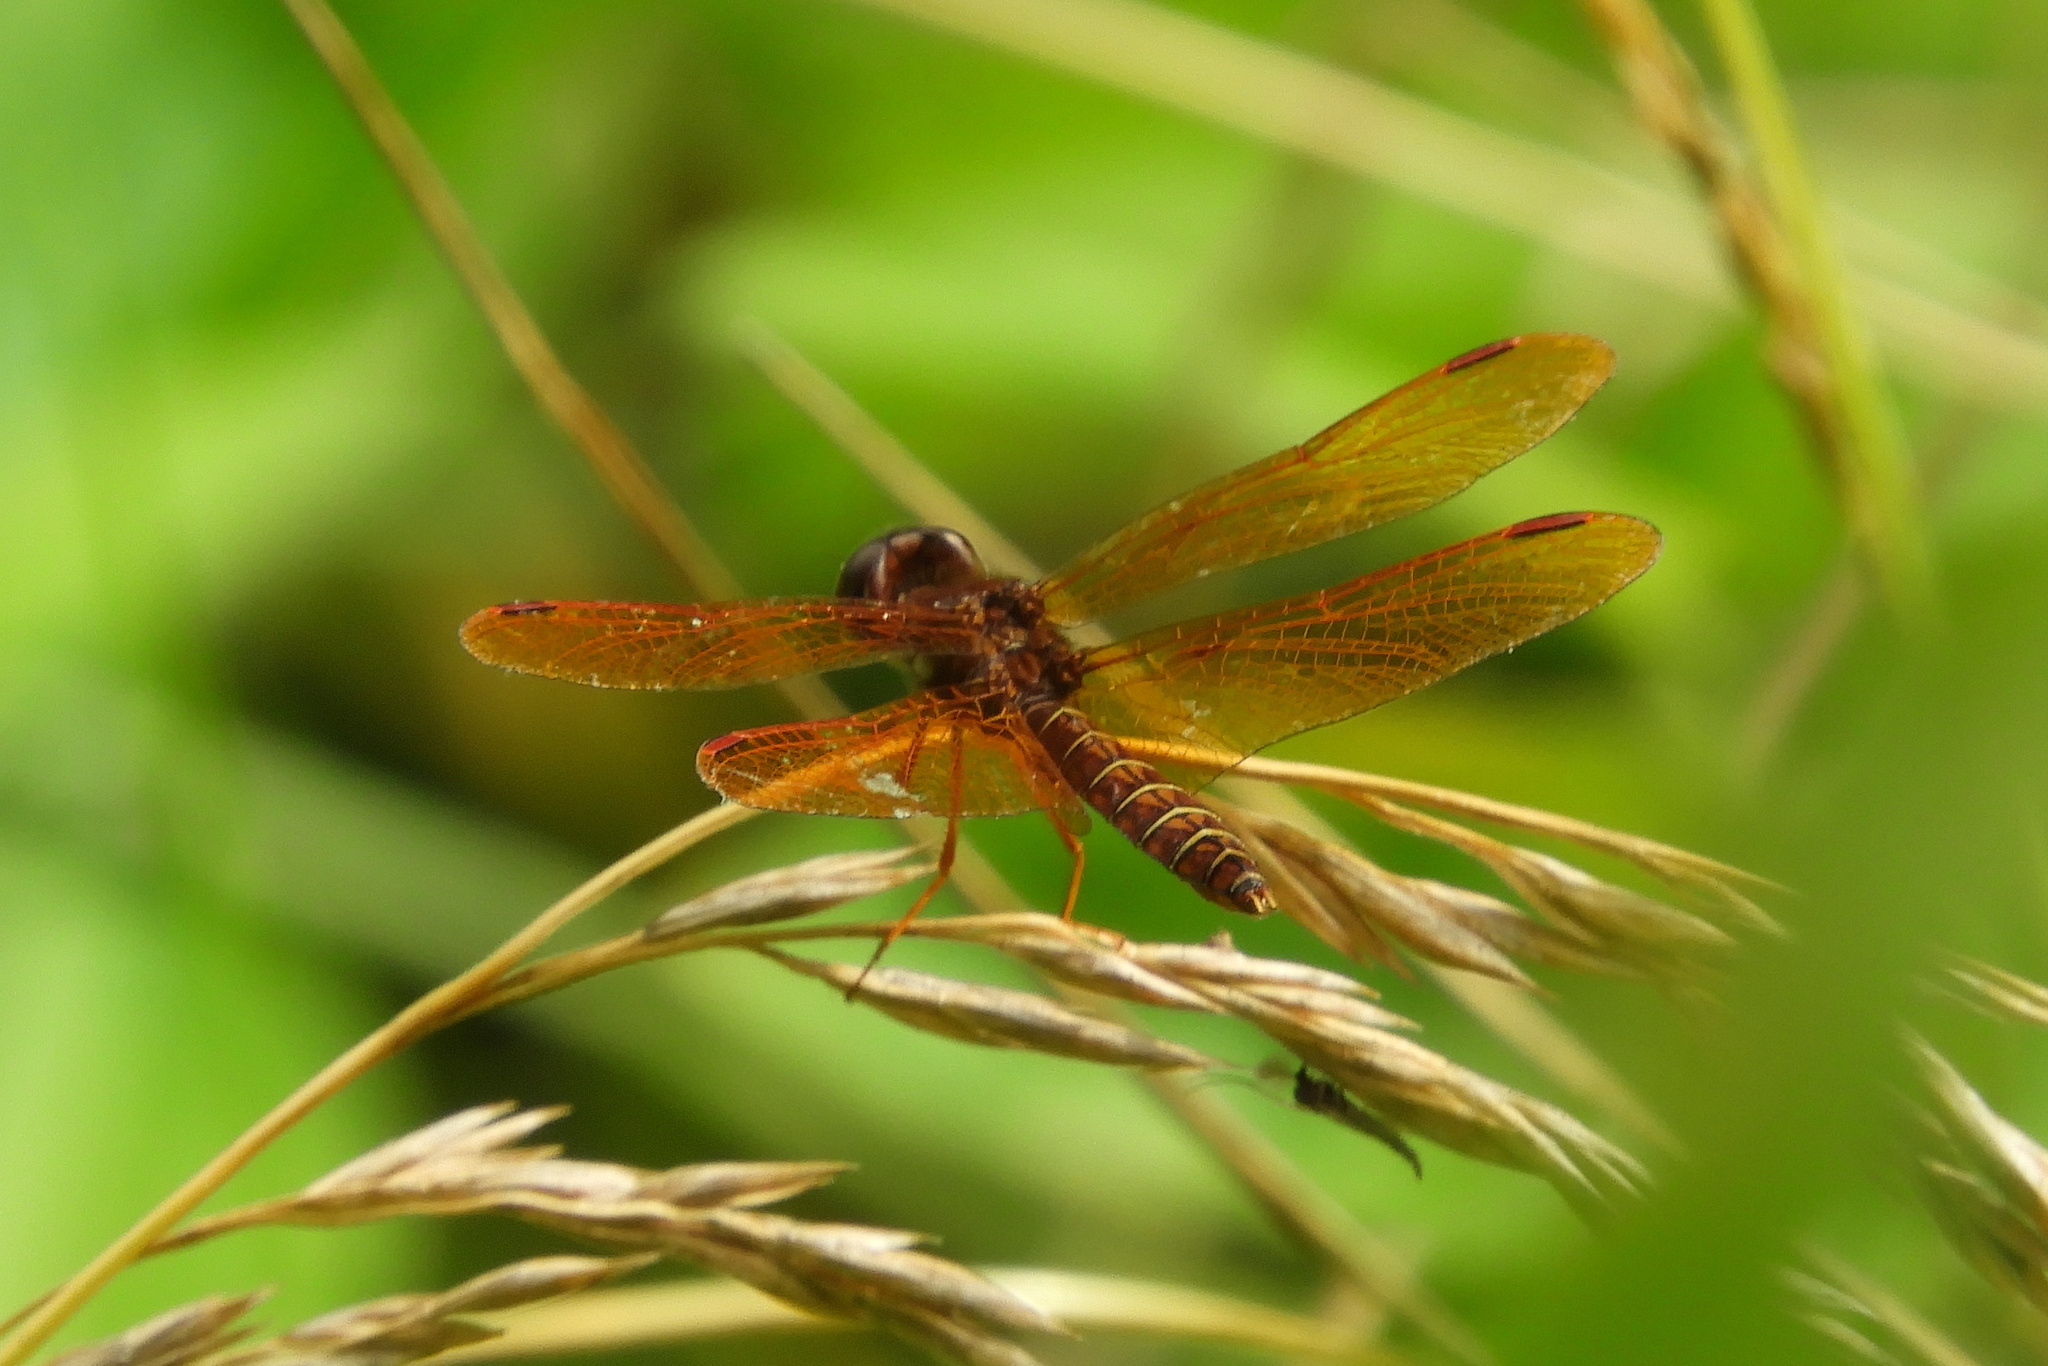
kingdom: Animalia
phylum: Arthropoda
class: Insecta
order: Odonata
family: Libellulidae
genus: Perithemis
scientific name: Perithemis tenera
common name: Eastern amberwing
